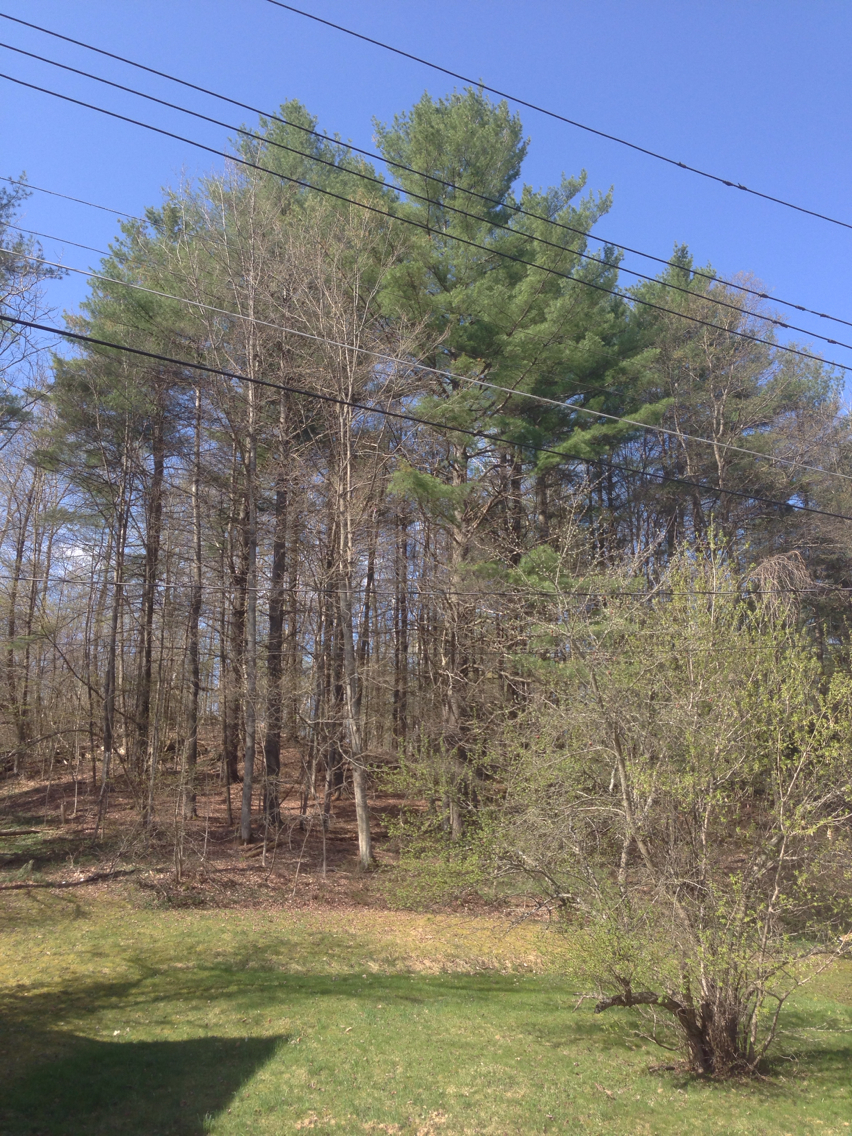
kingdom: Plantae
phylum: Tracheophyta
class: Pinopsida
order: Pinales
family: Pinaceae
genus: Pinus
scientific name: Pinus strobus
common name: Weymouth pine
